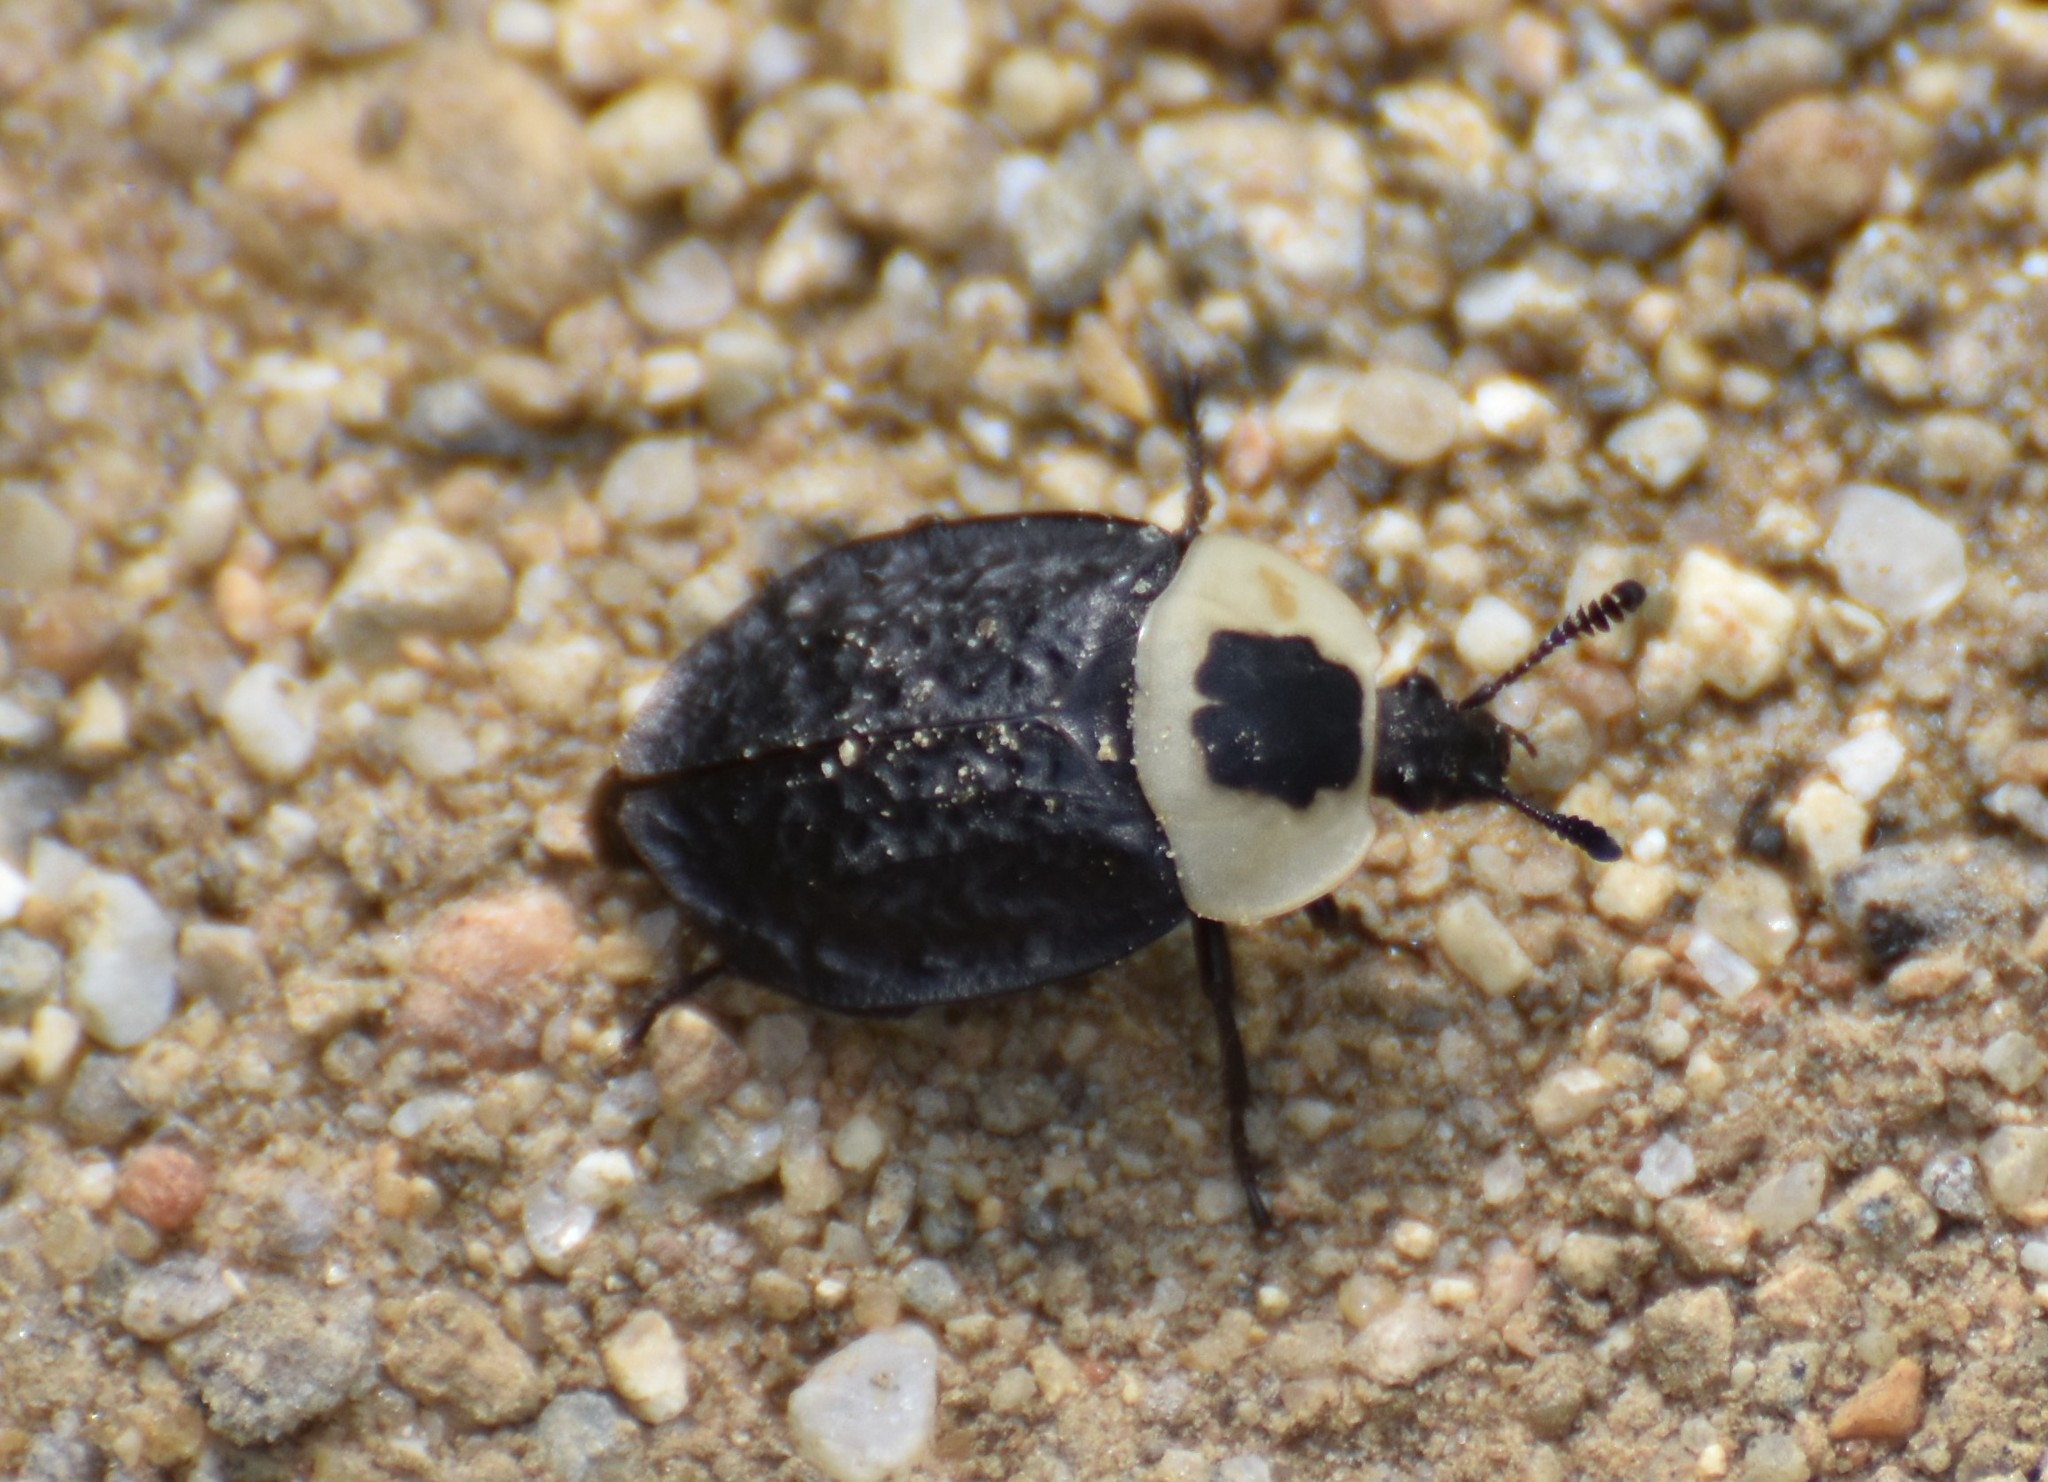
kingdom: Animalia
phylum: Arthropoda
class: Insecta
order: Coleoptera
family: Staphylinidae
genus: Necrophila
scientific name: Necrophila americana
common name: American carrion beetle
